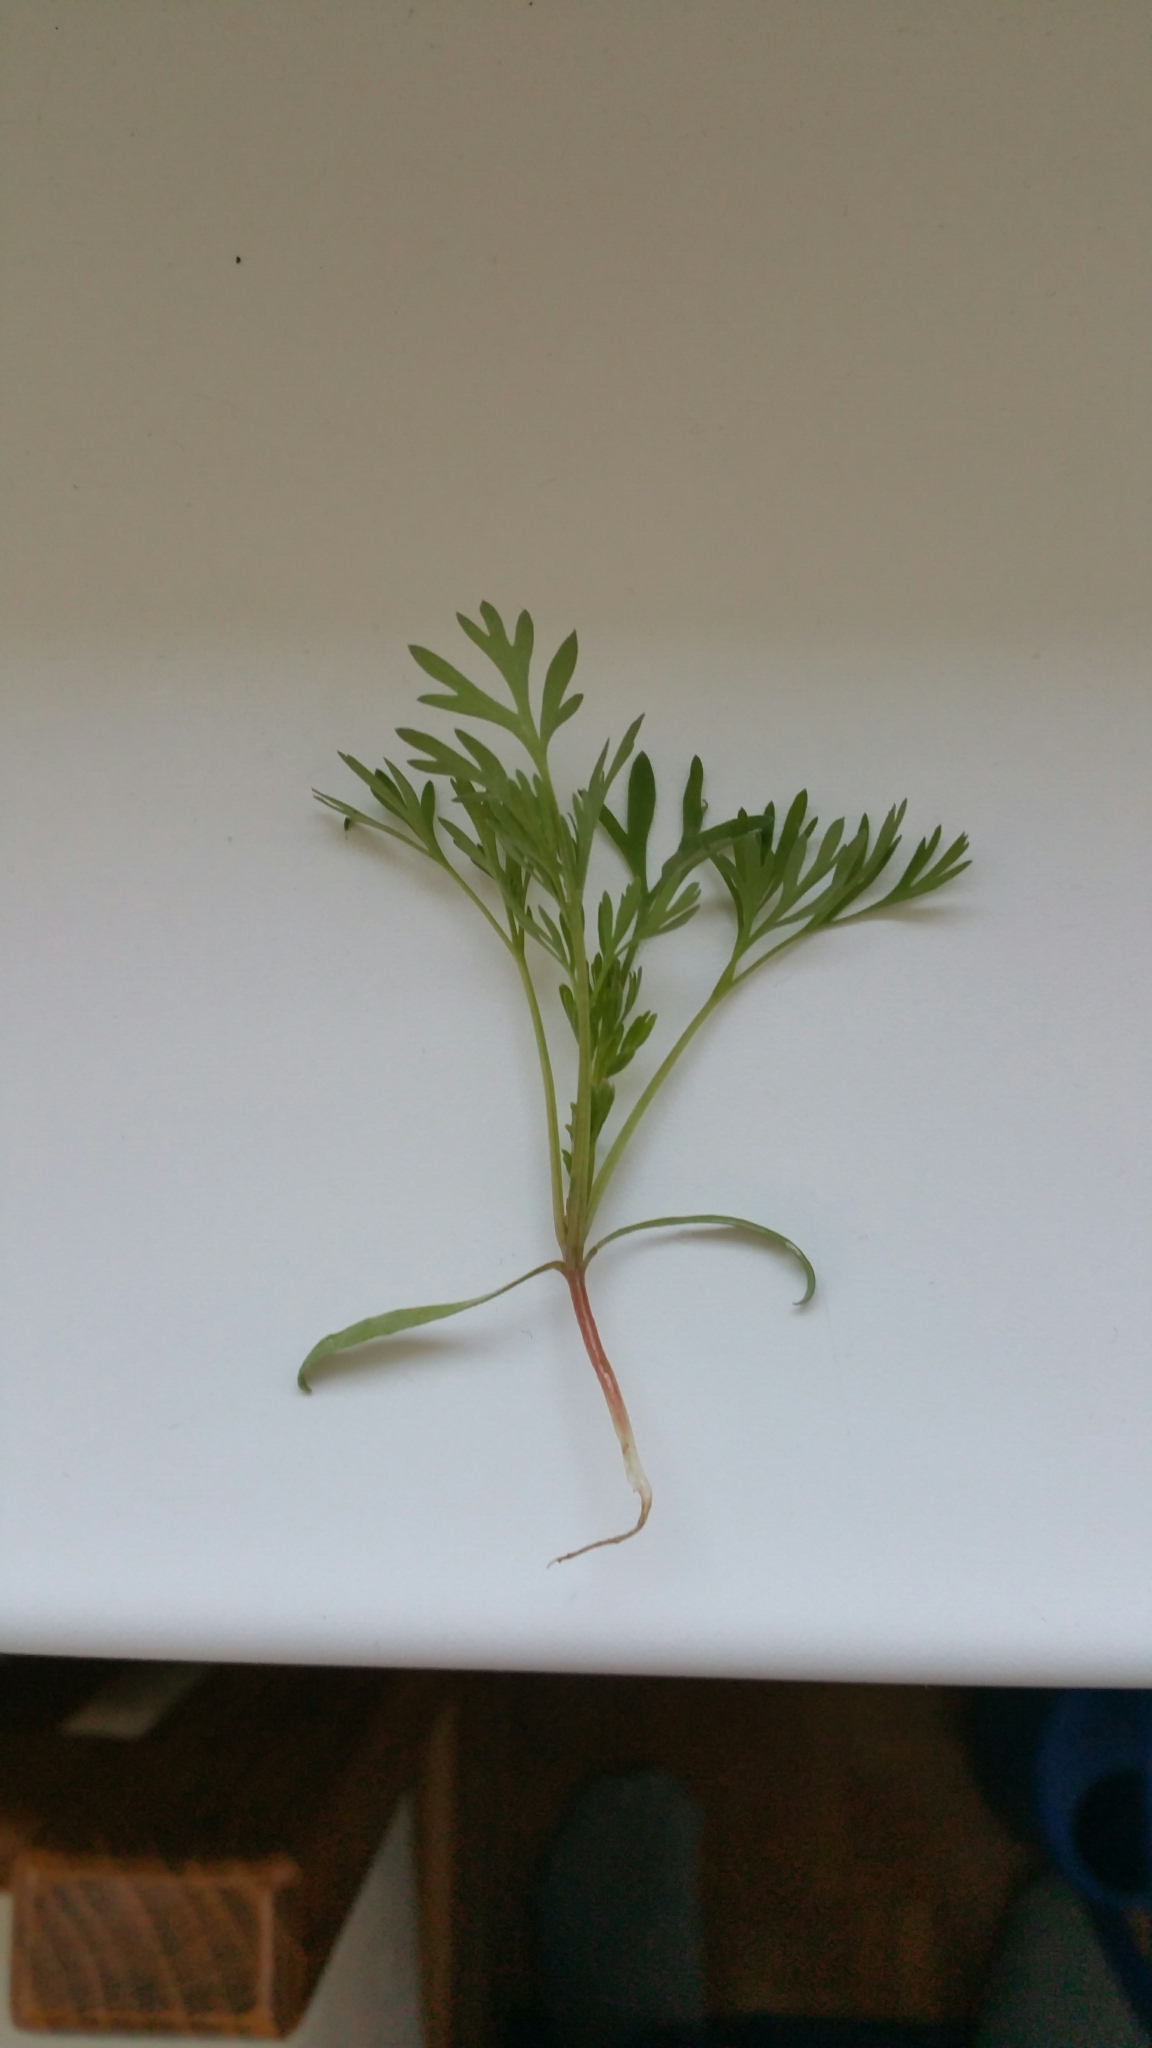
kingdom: Plantae
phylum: Tracheophyta
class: Magnoliopsida
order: Ranunculales
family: Papaveraceae
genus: Fumaria
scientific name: Fumaria officinalis
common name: Common fumitory
